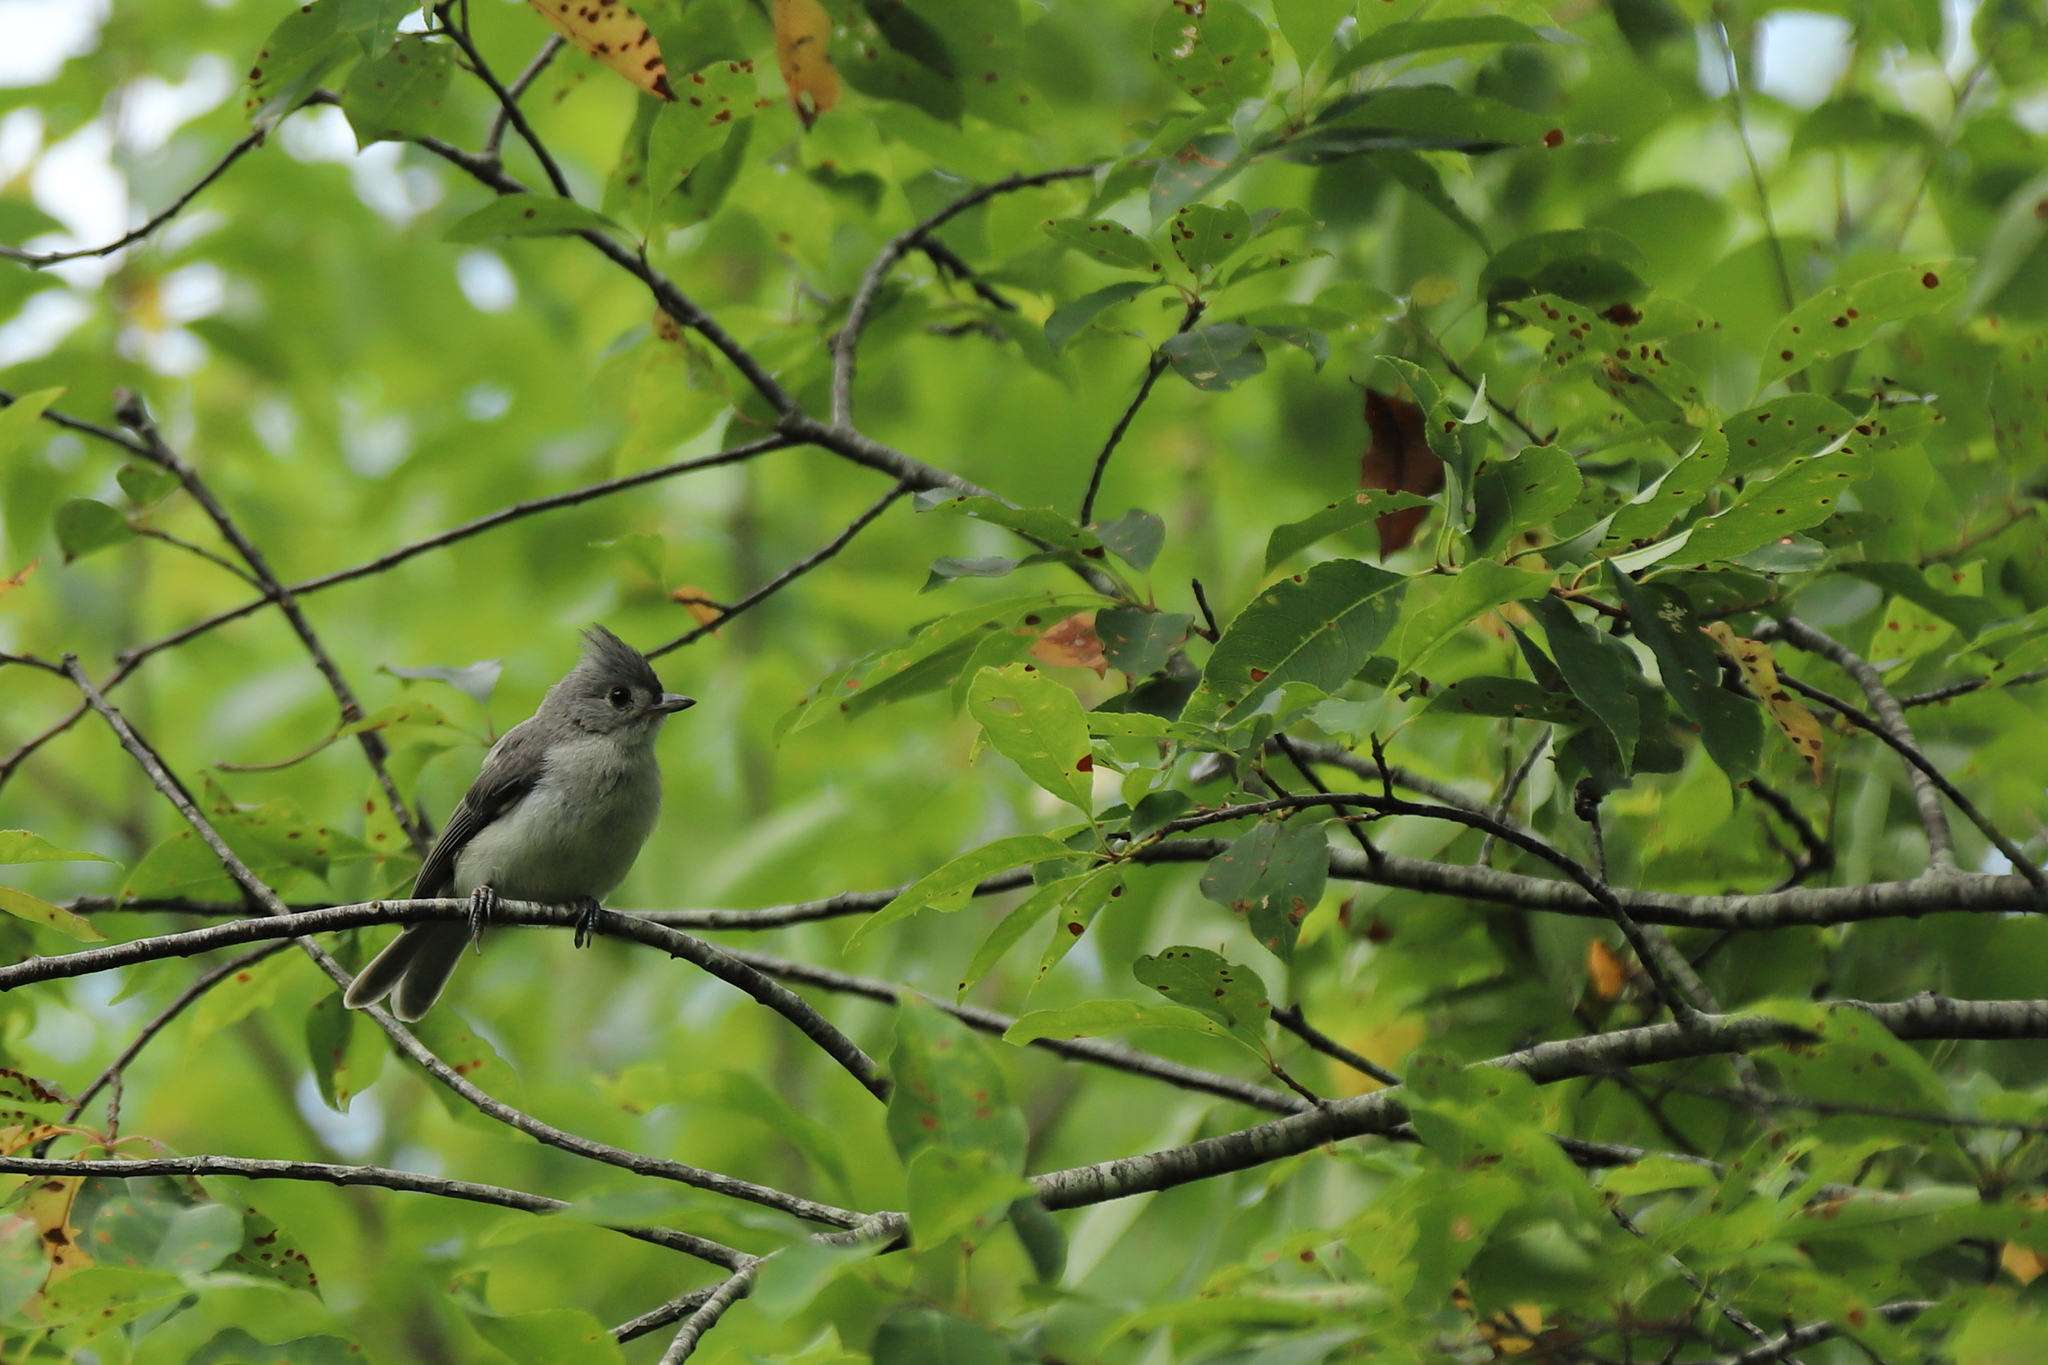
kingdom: Animalia
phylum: Chordata
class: Aves
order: Passeriformes
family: Paridae
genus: Baeolophus
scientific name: Baeolophus bicolor
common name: Tufted titmouse
